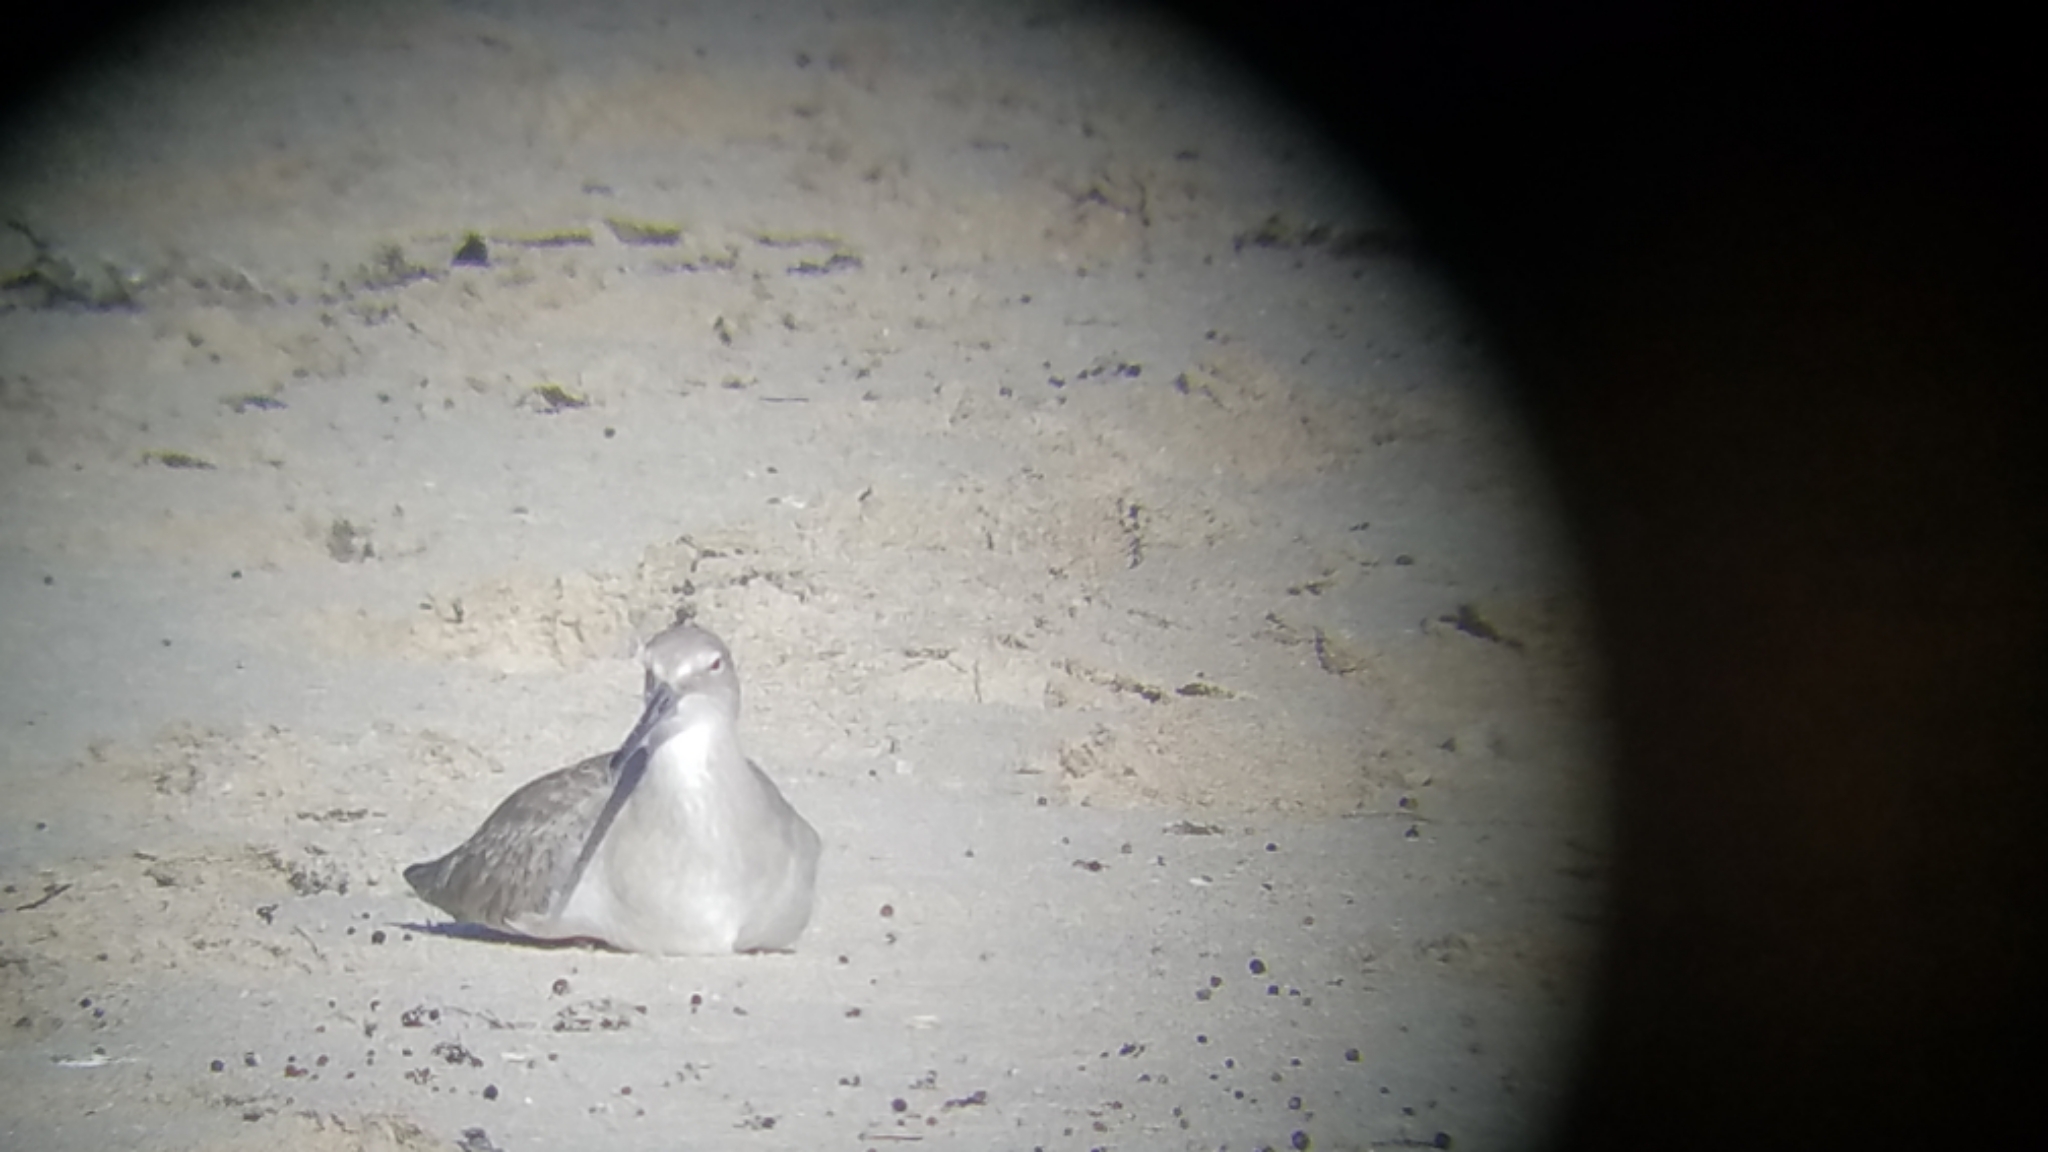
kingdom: Animalia
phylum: Chordata
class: Aves
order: Charadriiformes
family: Scolopacidae
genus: Tringa
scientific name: Tringa semipalmata
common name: Willet
